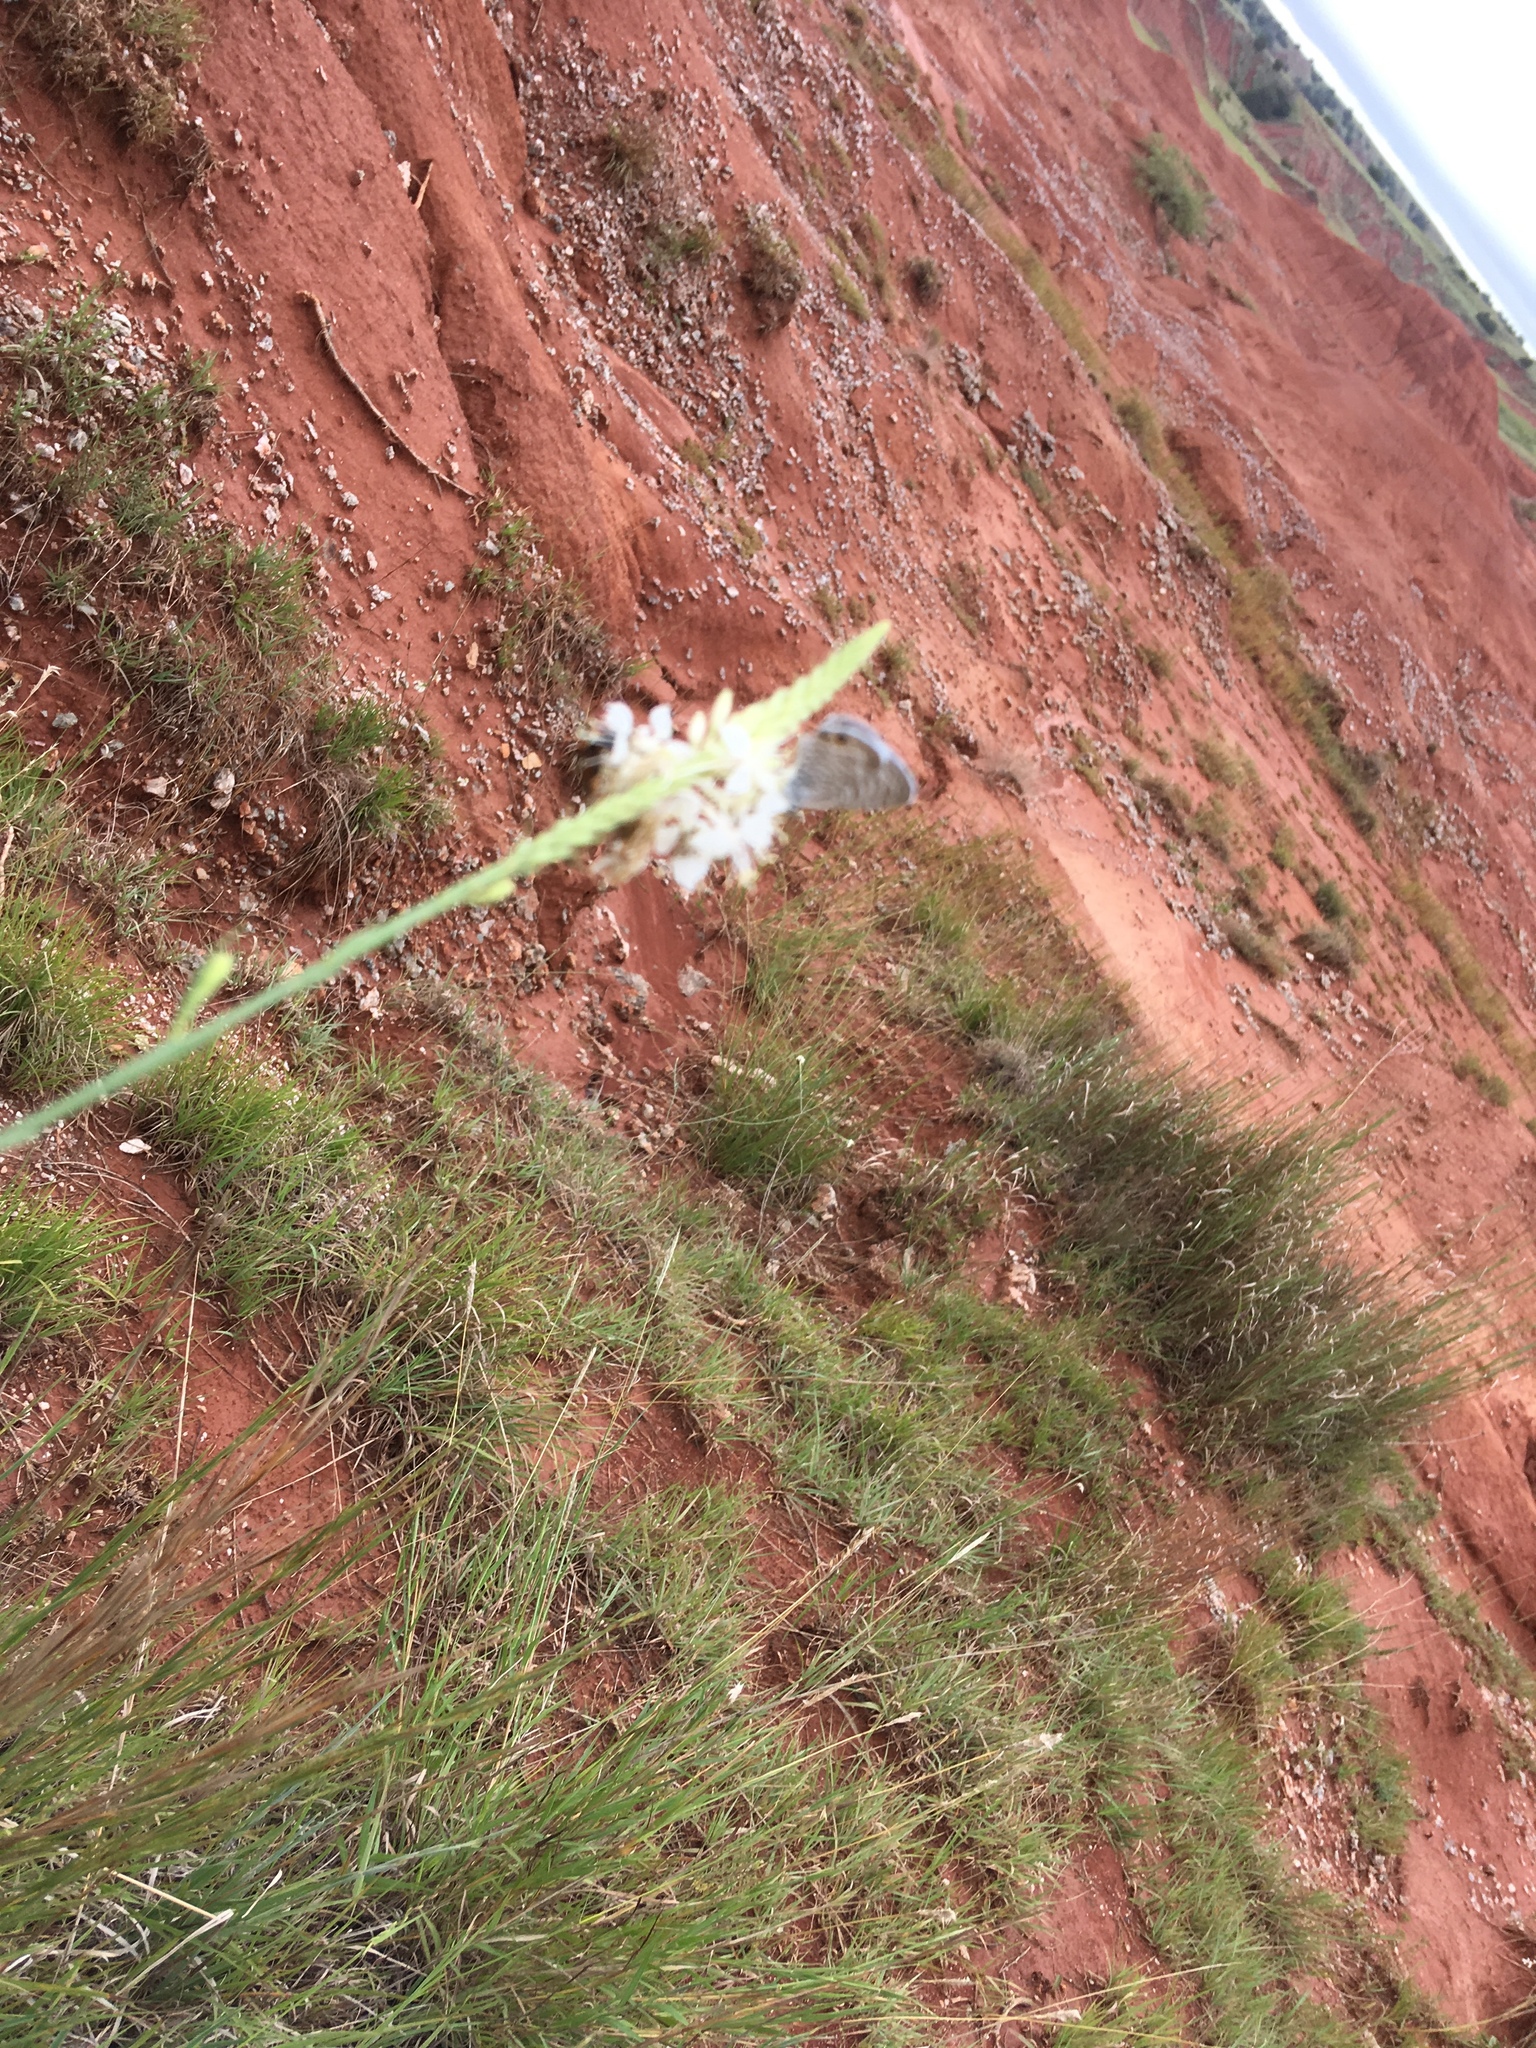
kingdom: Animalia
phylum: Arthropoda
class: Insecta
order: Lepidoptera
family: Lycaenidae
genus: Leptotes
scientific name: Leptotes marina
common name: Marine blue
